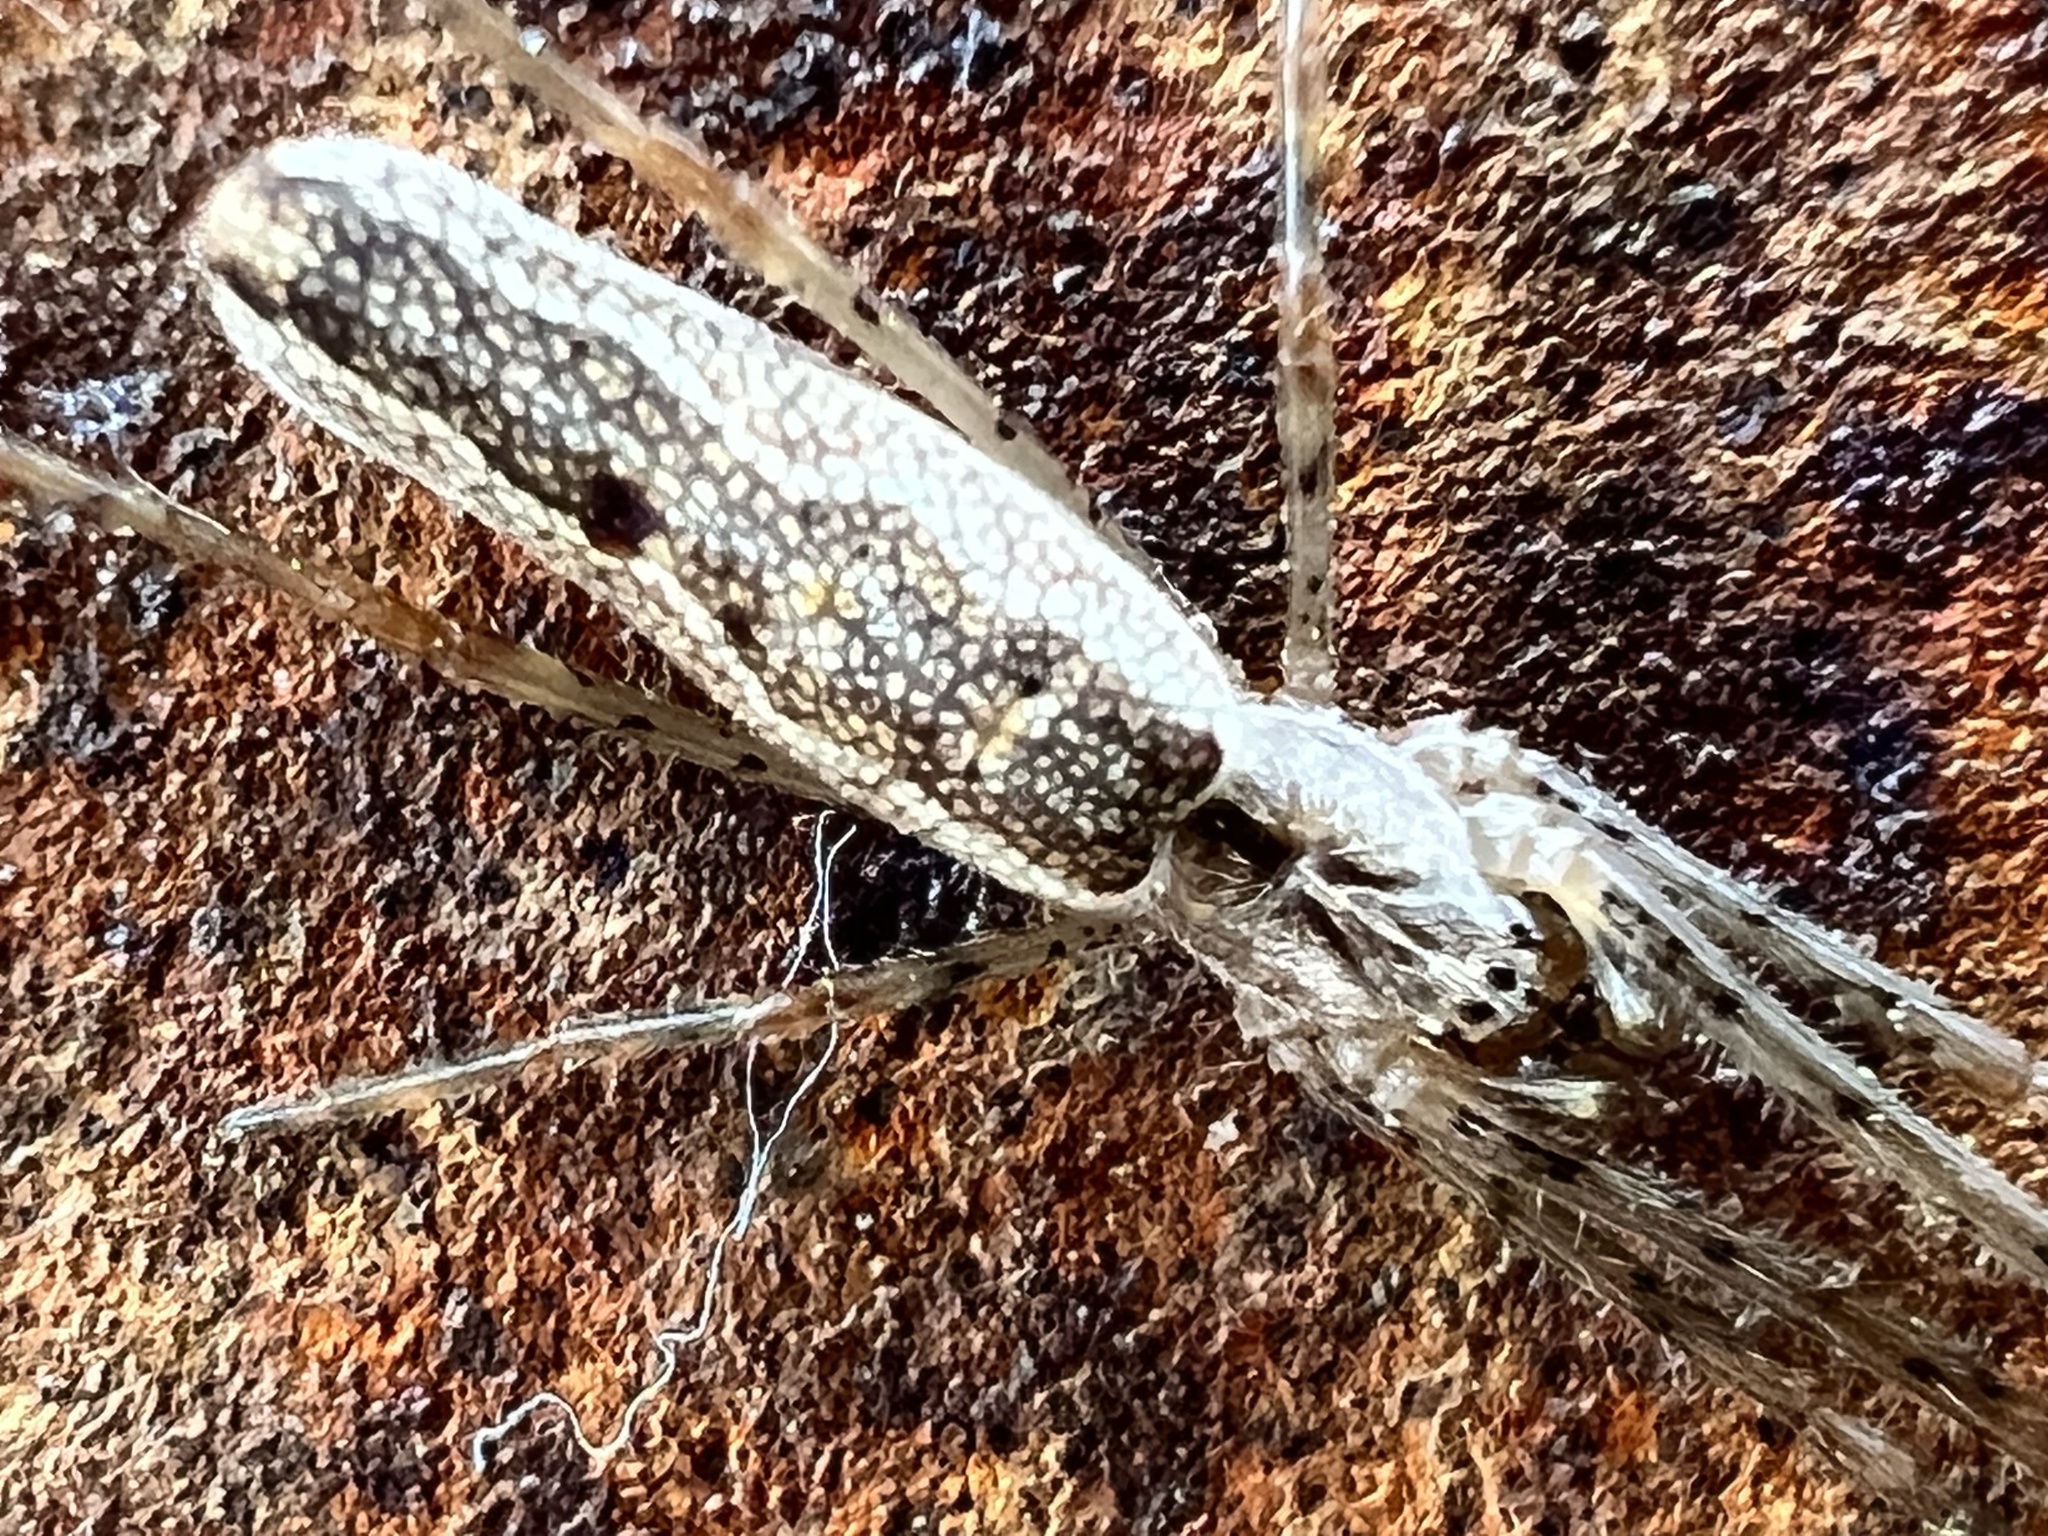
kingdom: Animalia
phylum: Arthropoda
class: Arachnida
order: Araneae
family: Tetragnathidae
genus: Tetragnatha
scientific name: Tetragnatha versicolor
